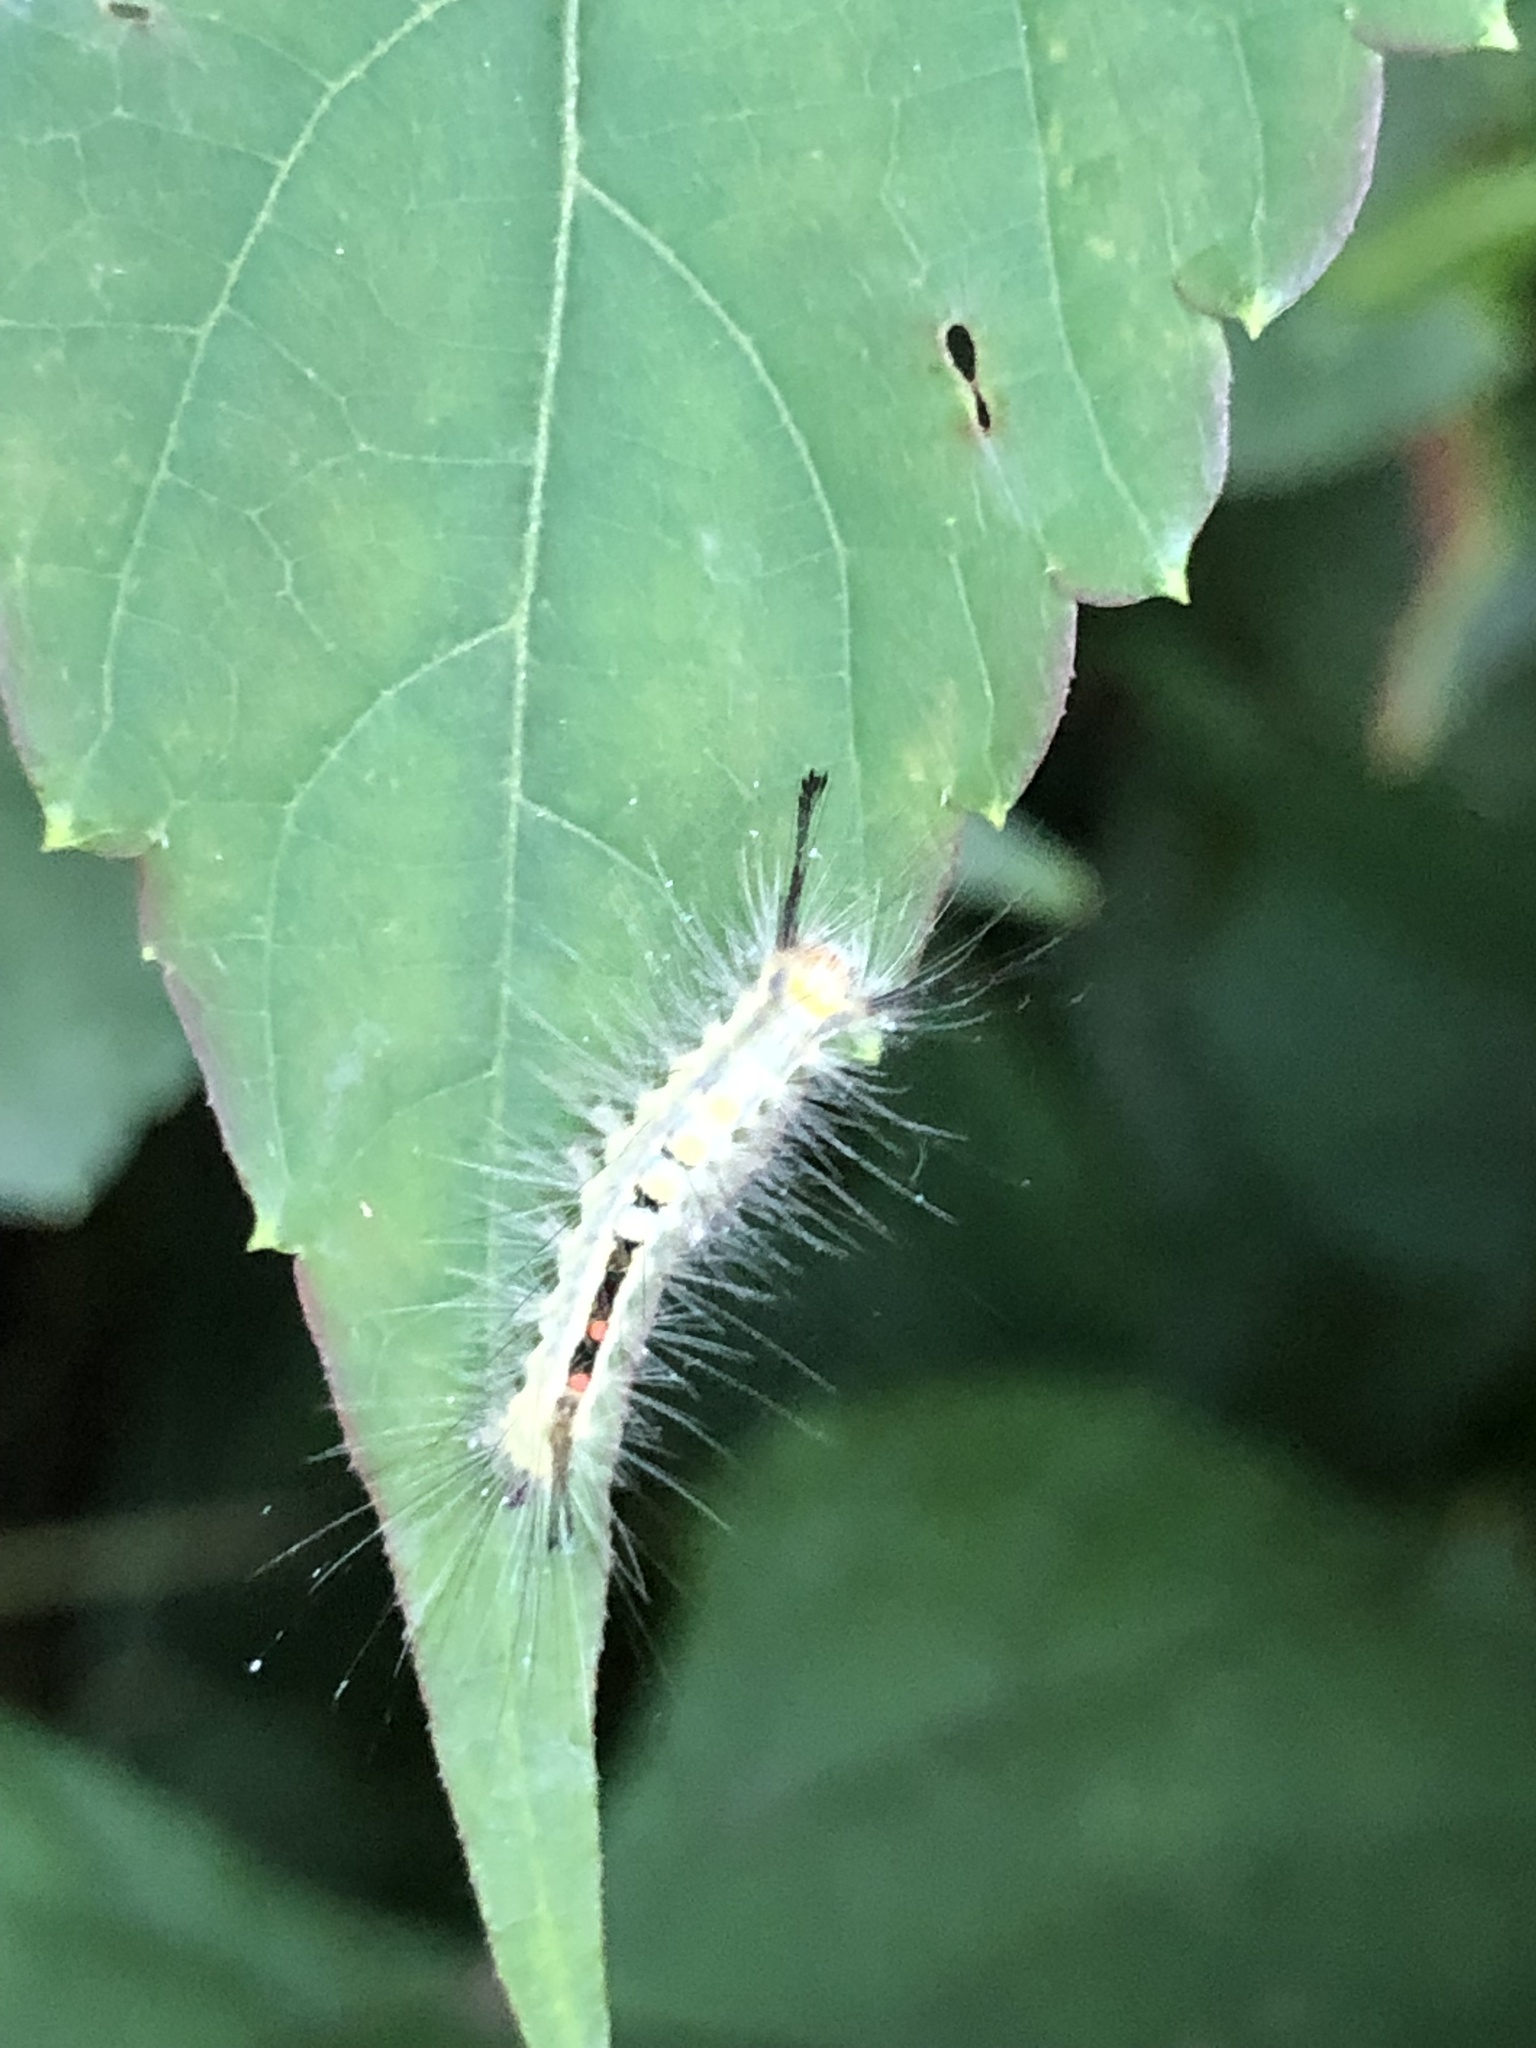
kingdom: Animalia
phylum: Arthropoda
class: Insecta
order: Lepidoptera
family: Erebidae
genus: Orgyia
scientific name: Orgyia leucostigma
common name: White-marked tussock moth
